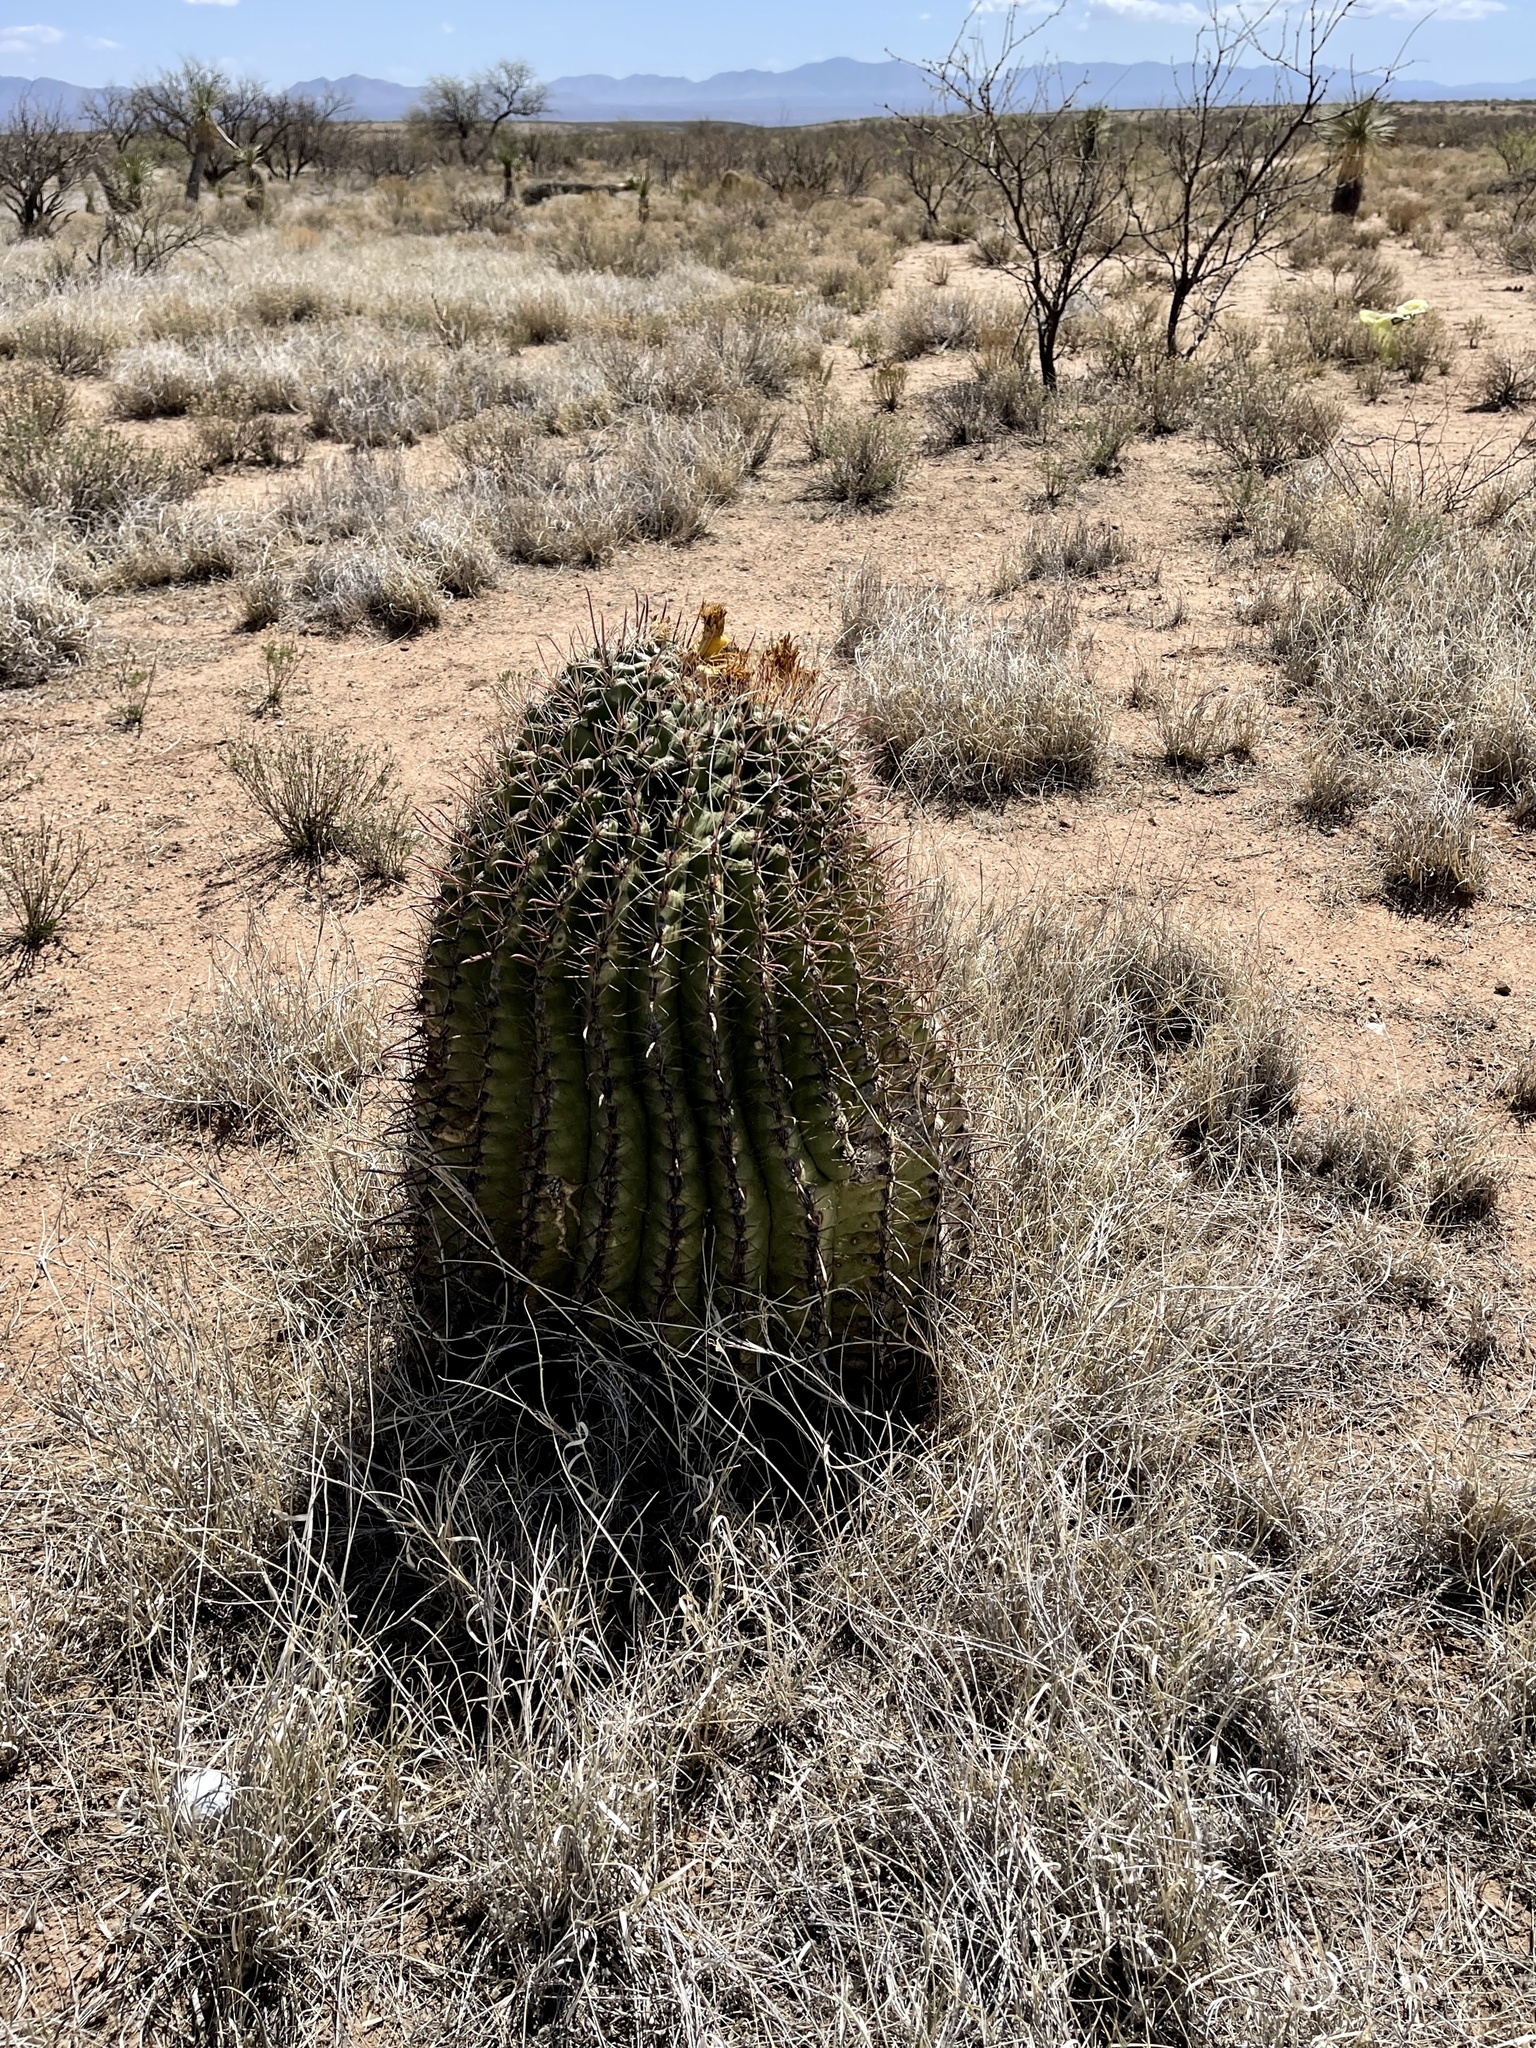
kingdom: Plantae
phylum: Tracheophyta
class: Magnoliopsida
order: Caryophyllales
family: Cactaceae
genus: Ferocactus
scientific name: Ferocactus wislizeni
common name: Candy barrel cactus
